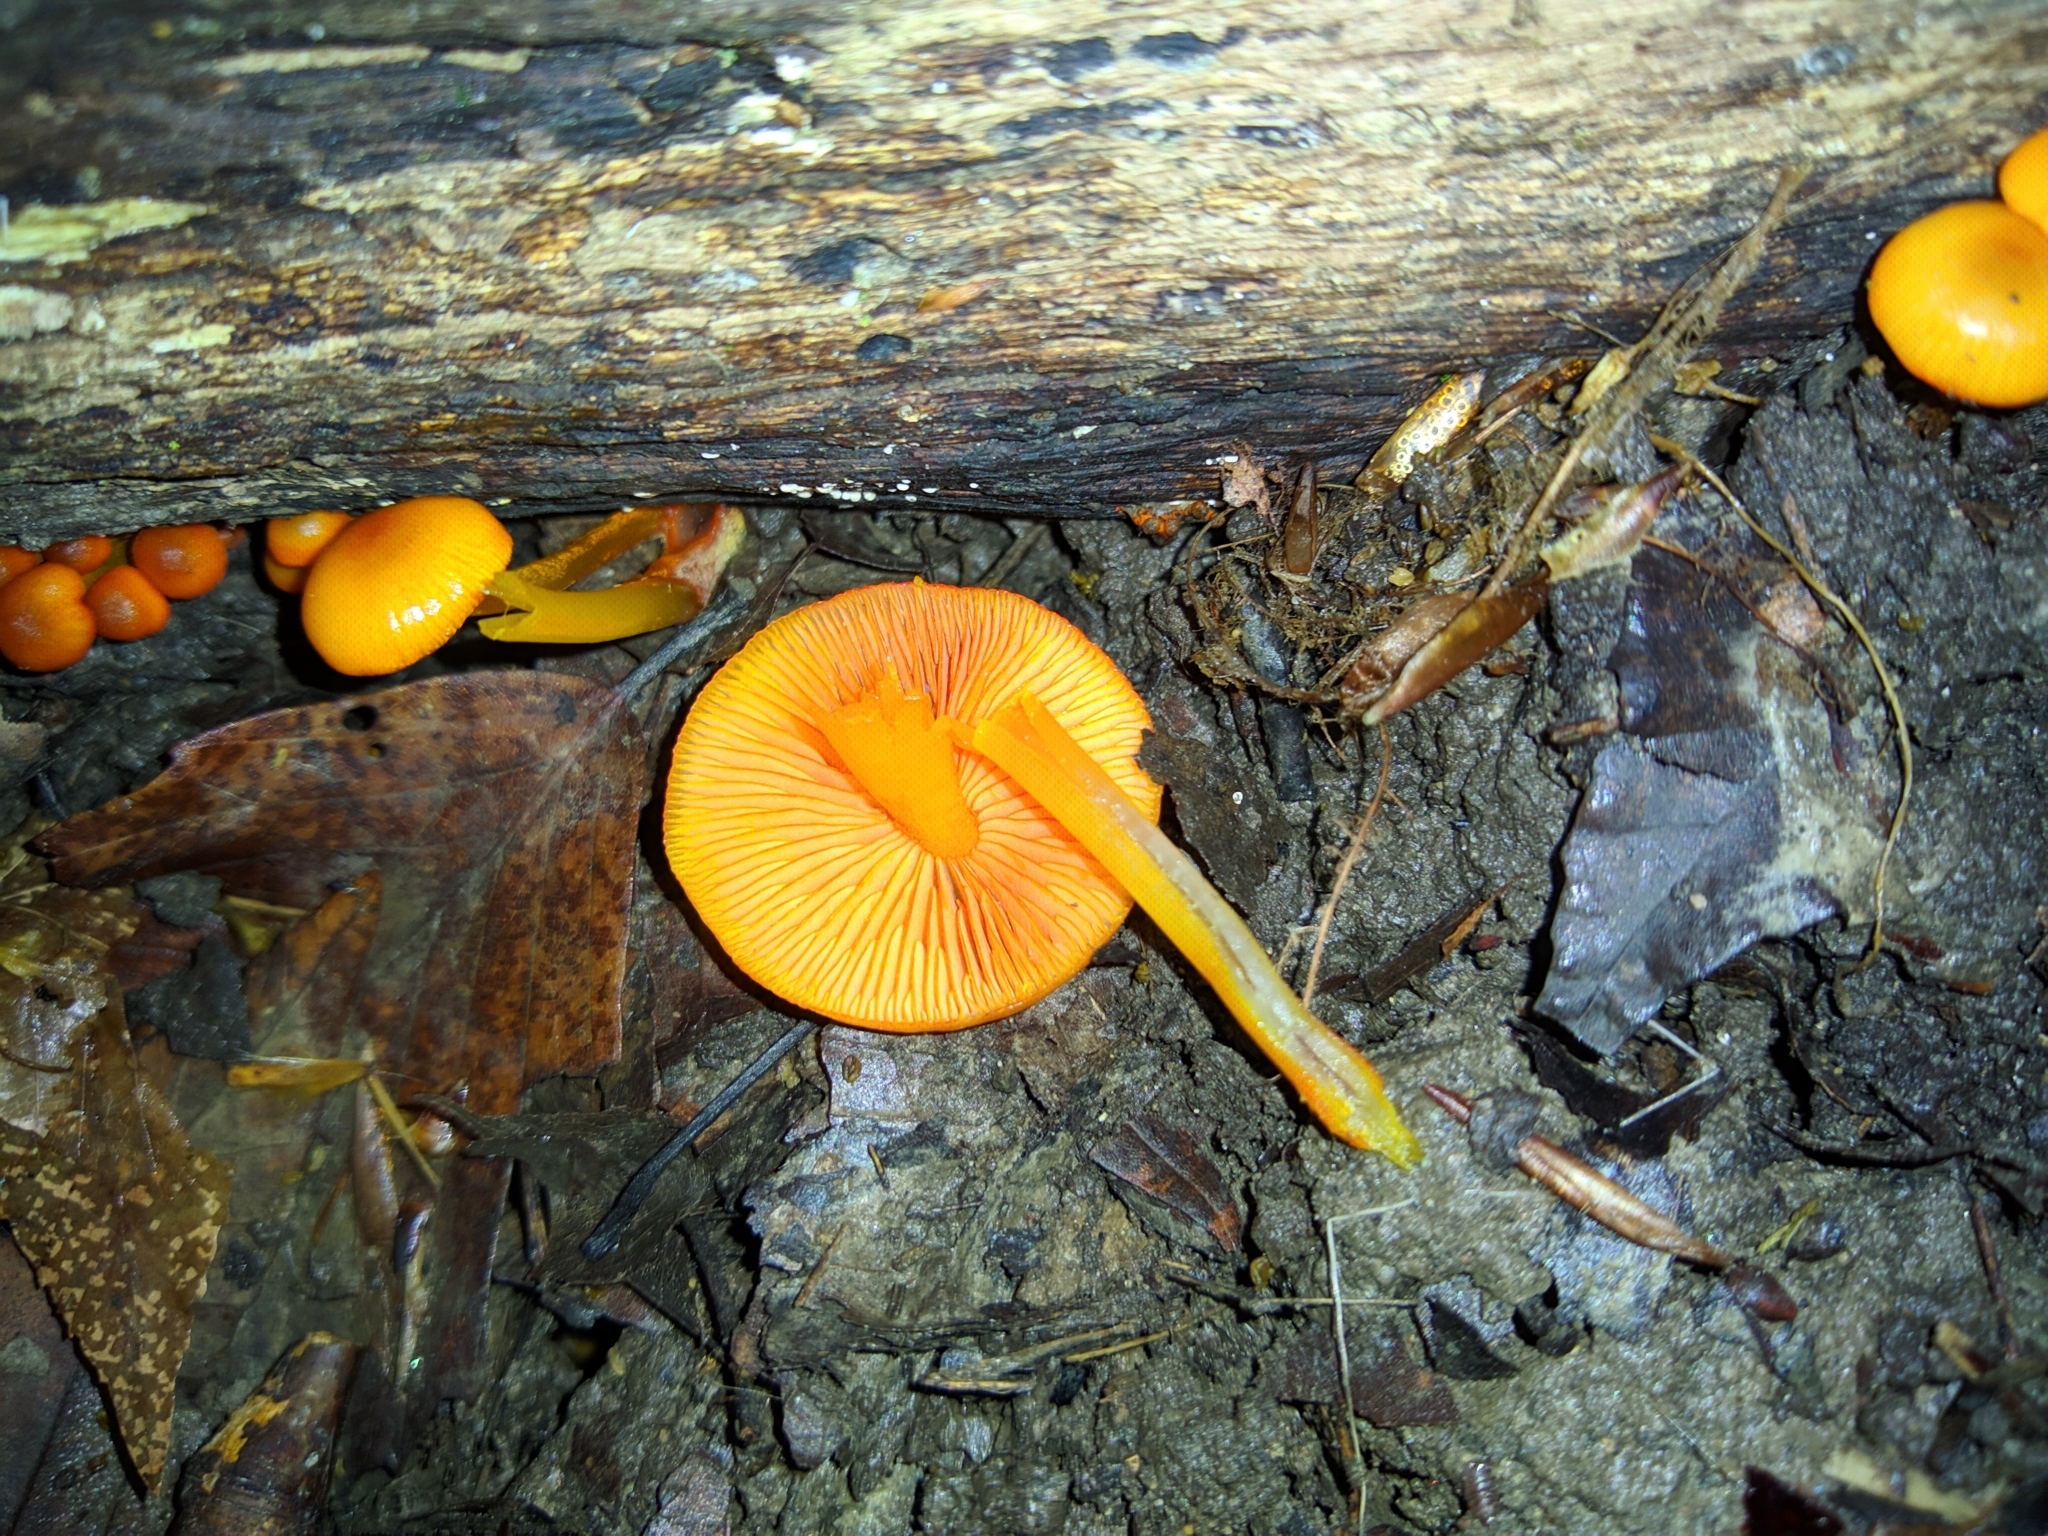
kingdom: Fungi
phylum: Basidiomycota
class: Agaricomycetes
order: Agaricales
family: Mycenaceae
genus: Mycena
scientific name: Mycena leaiana
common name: Orange mycena
